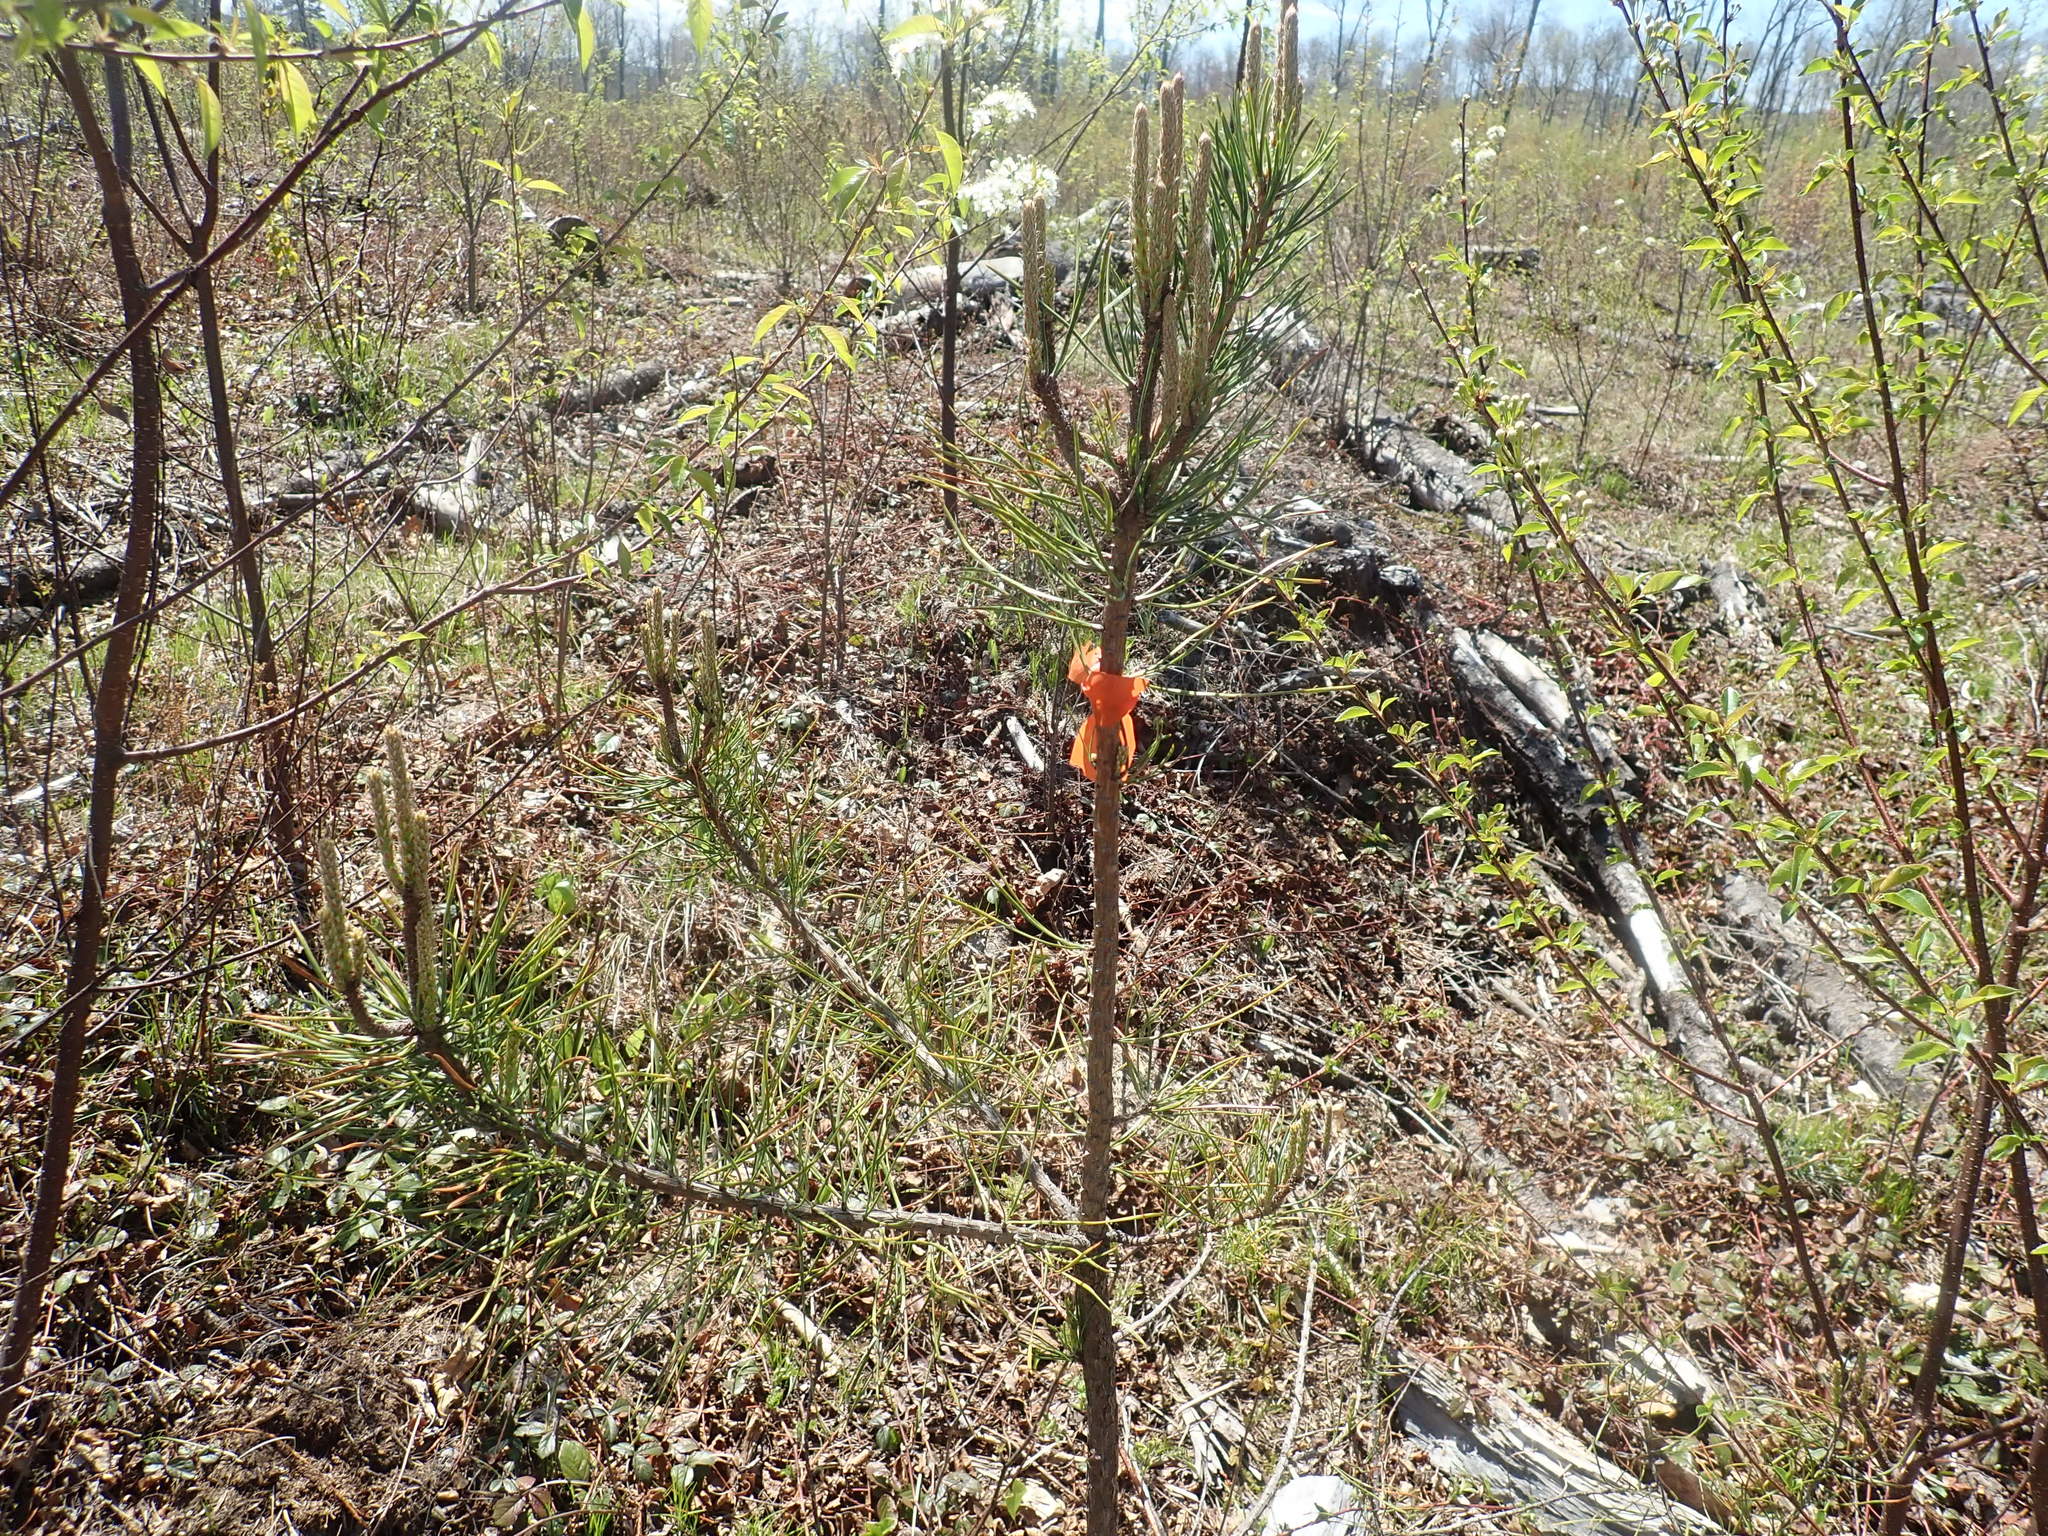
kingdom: Plantae
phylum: Tracheophyta
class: Pinopsida
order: Pinales
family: Pinaceae
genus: Pinus
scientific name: Pinus rigida
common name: Pitch pine
